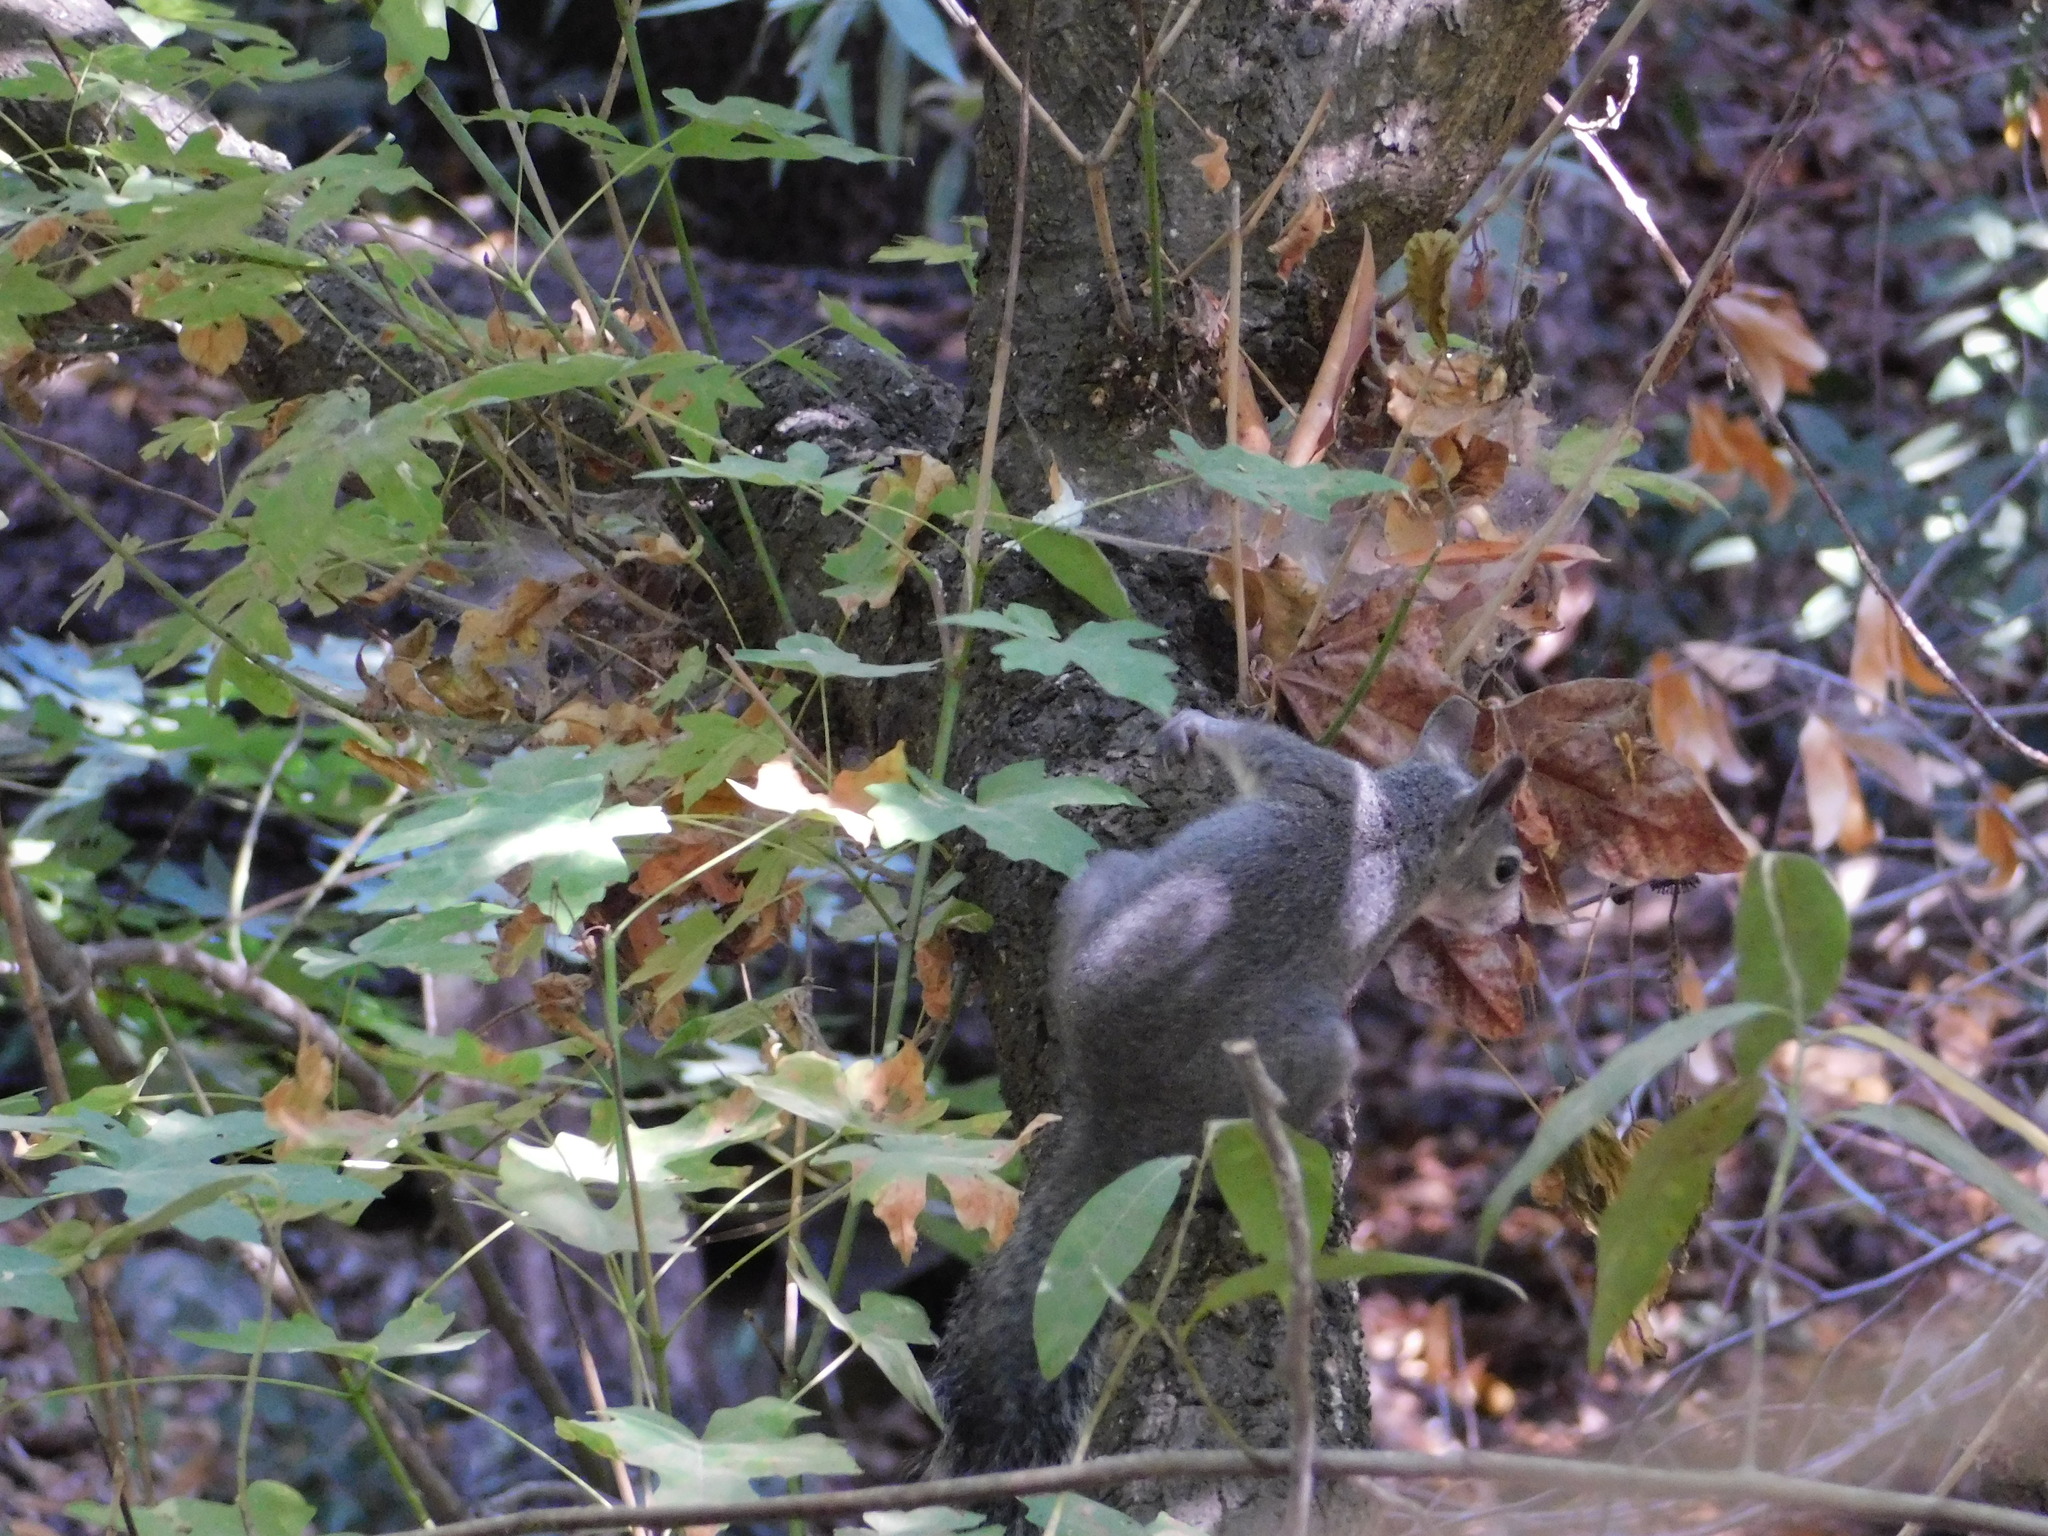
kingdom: Animalia
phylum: Chordata
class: Mammalia
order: Rodentia
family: Sciuridae
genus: Sciurus
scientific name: Sciurus griseus
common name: Western gray squirrel
